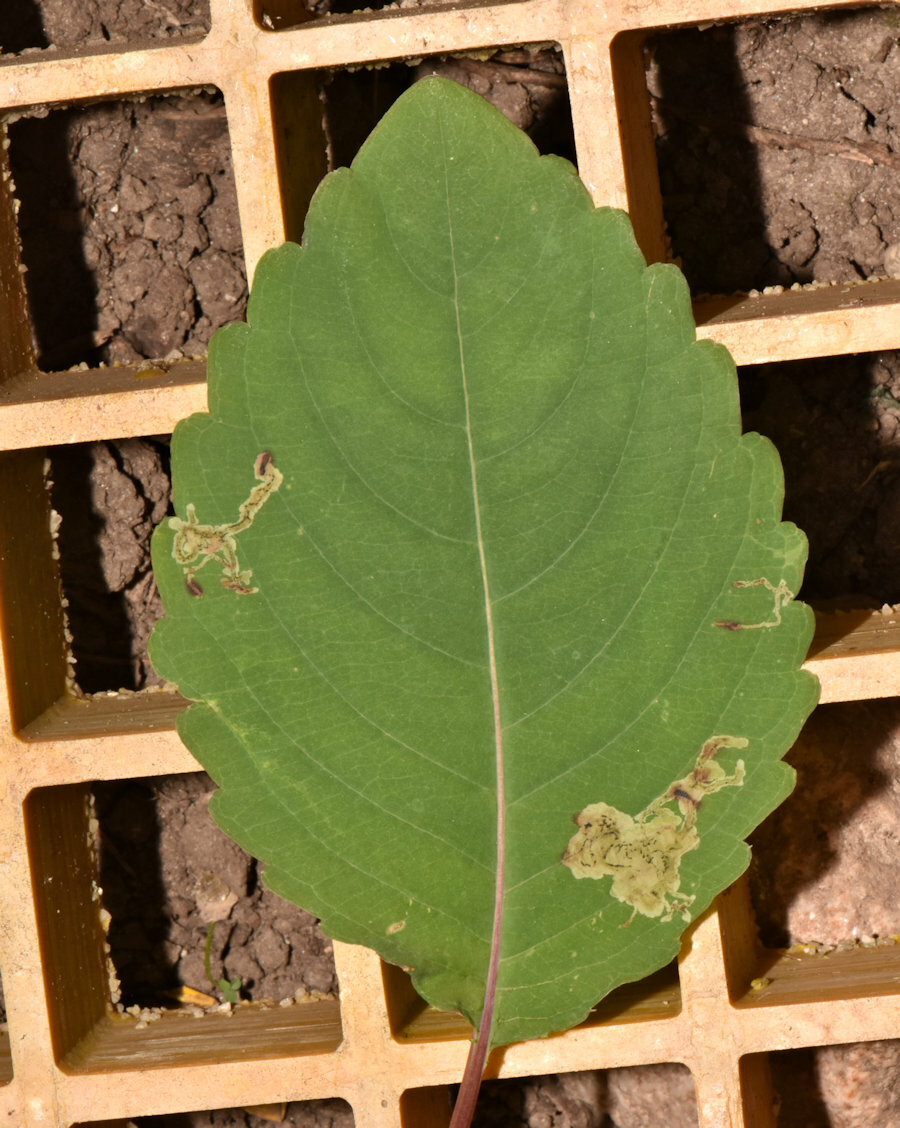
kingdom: Animalia
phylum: Arthropoda
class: Insecta
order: Diptera
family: Agromyzidae
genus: Phytoliriomyza
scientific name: Phytoliriomyza melampyga
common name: Jewelweed leaf-miner fly
